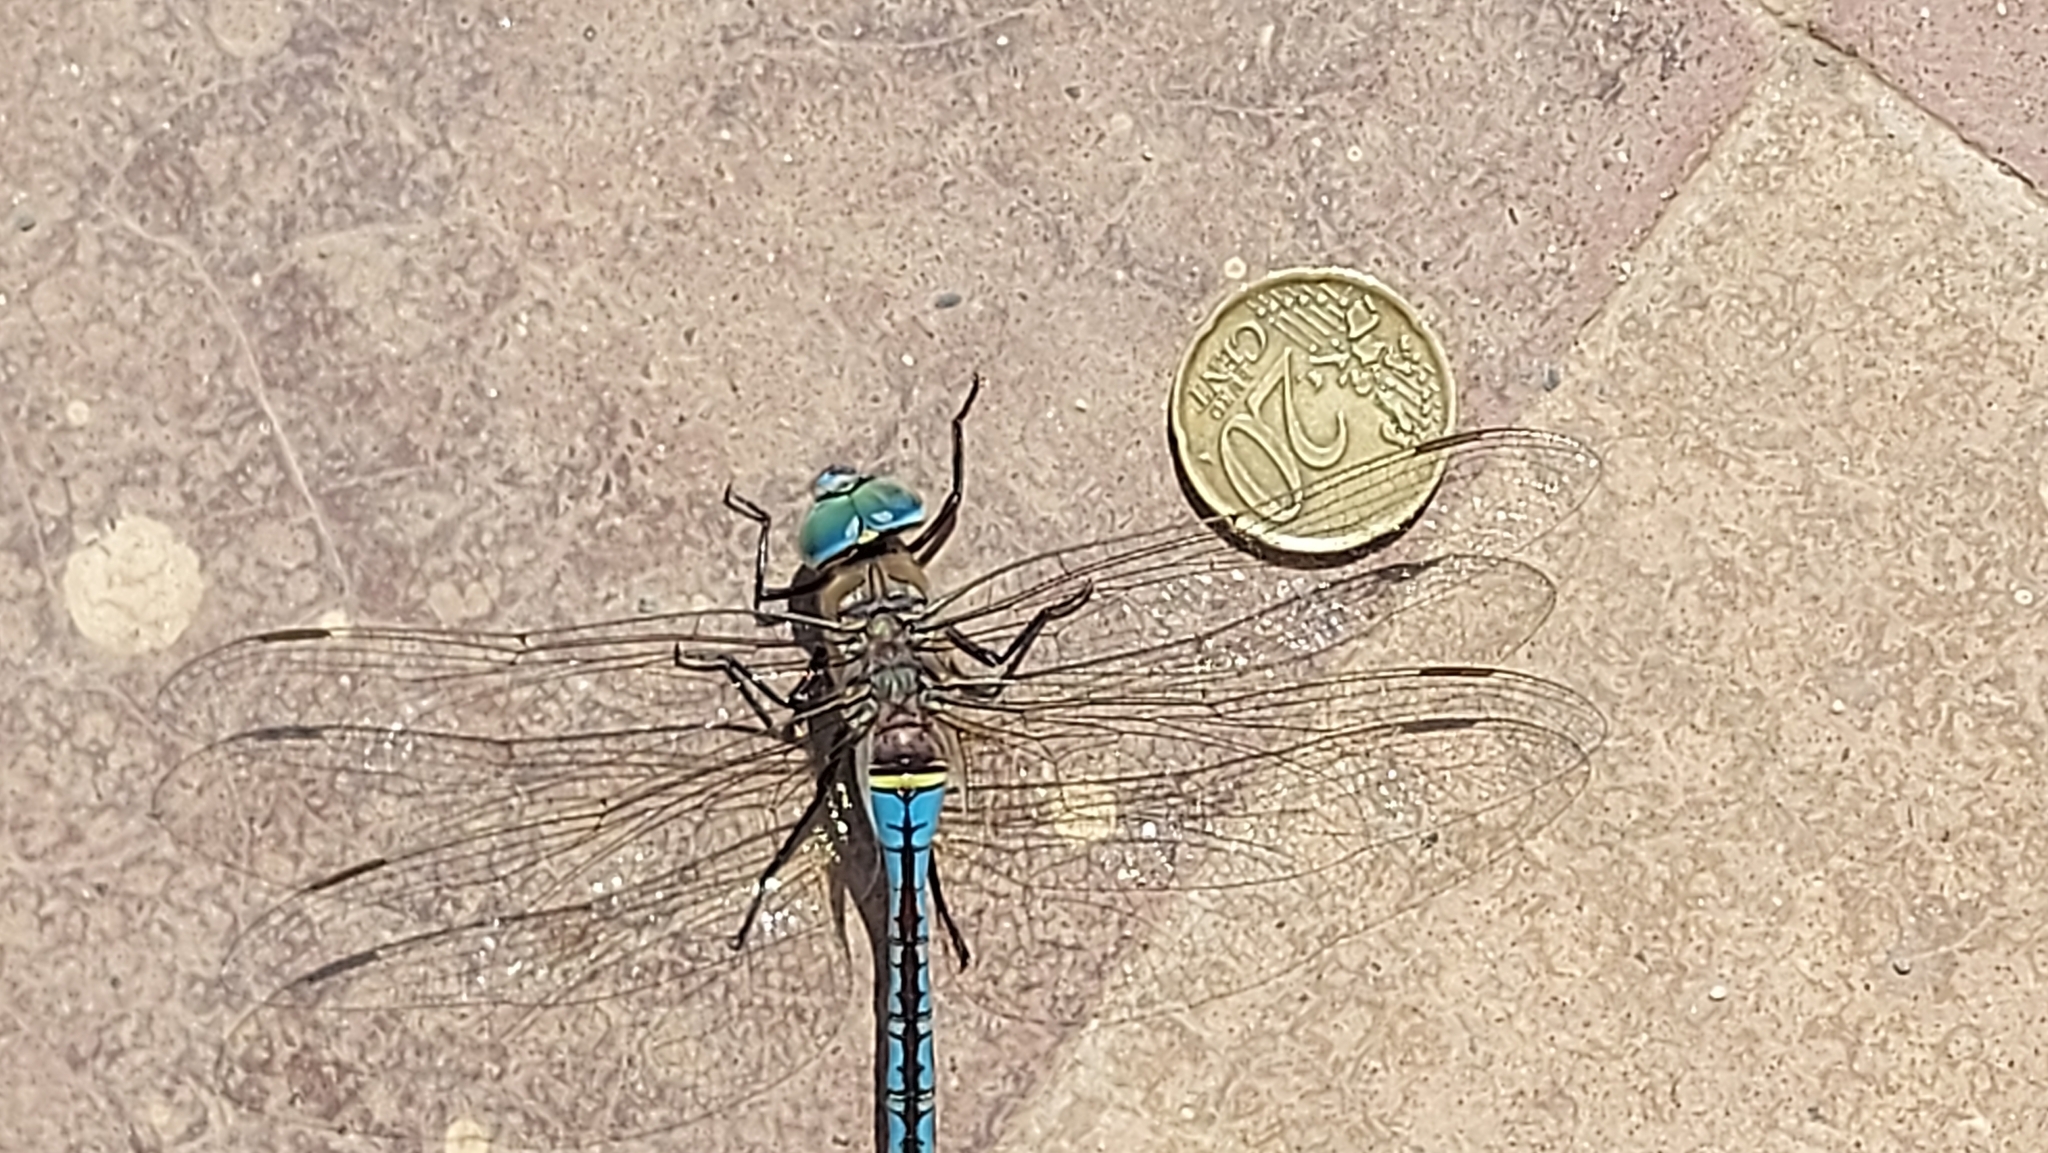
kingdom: Animalia
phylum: Arthropoda
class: Insecta
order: Odonata
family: Aeshnidae
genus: Anax
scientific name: Anax parthenope
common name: Lesser emperor
